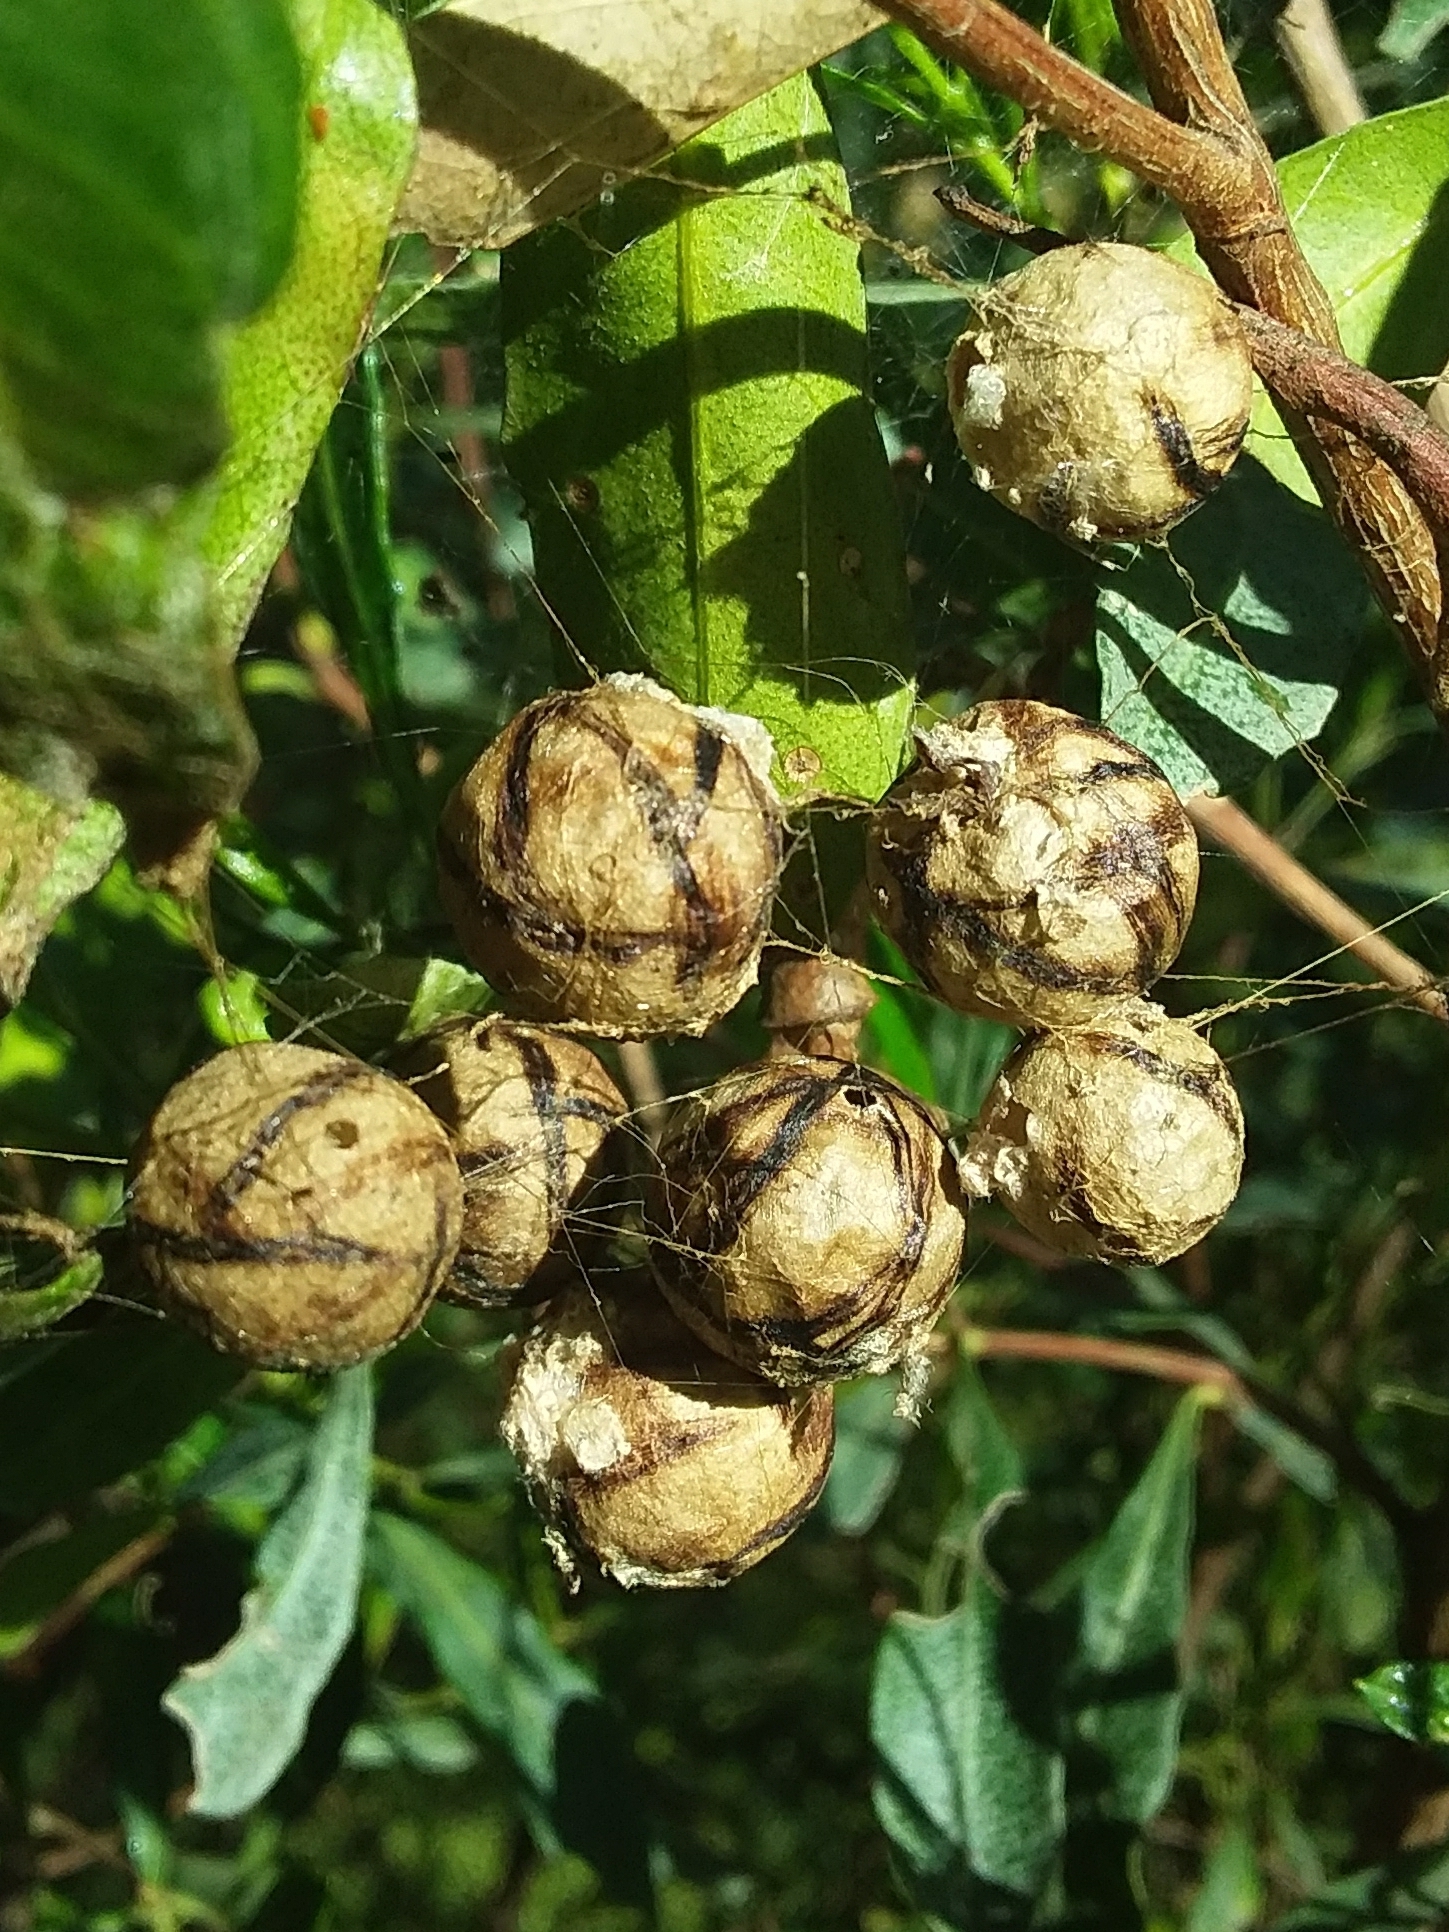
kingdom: Animalia
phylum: Arthropoda
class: Arachnida
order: Araneae
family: Araneidae
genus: Celaenia
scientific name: Celaenia excavata
